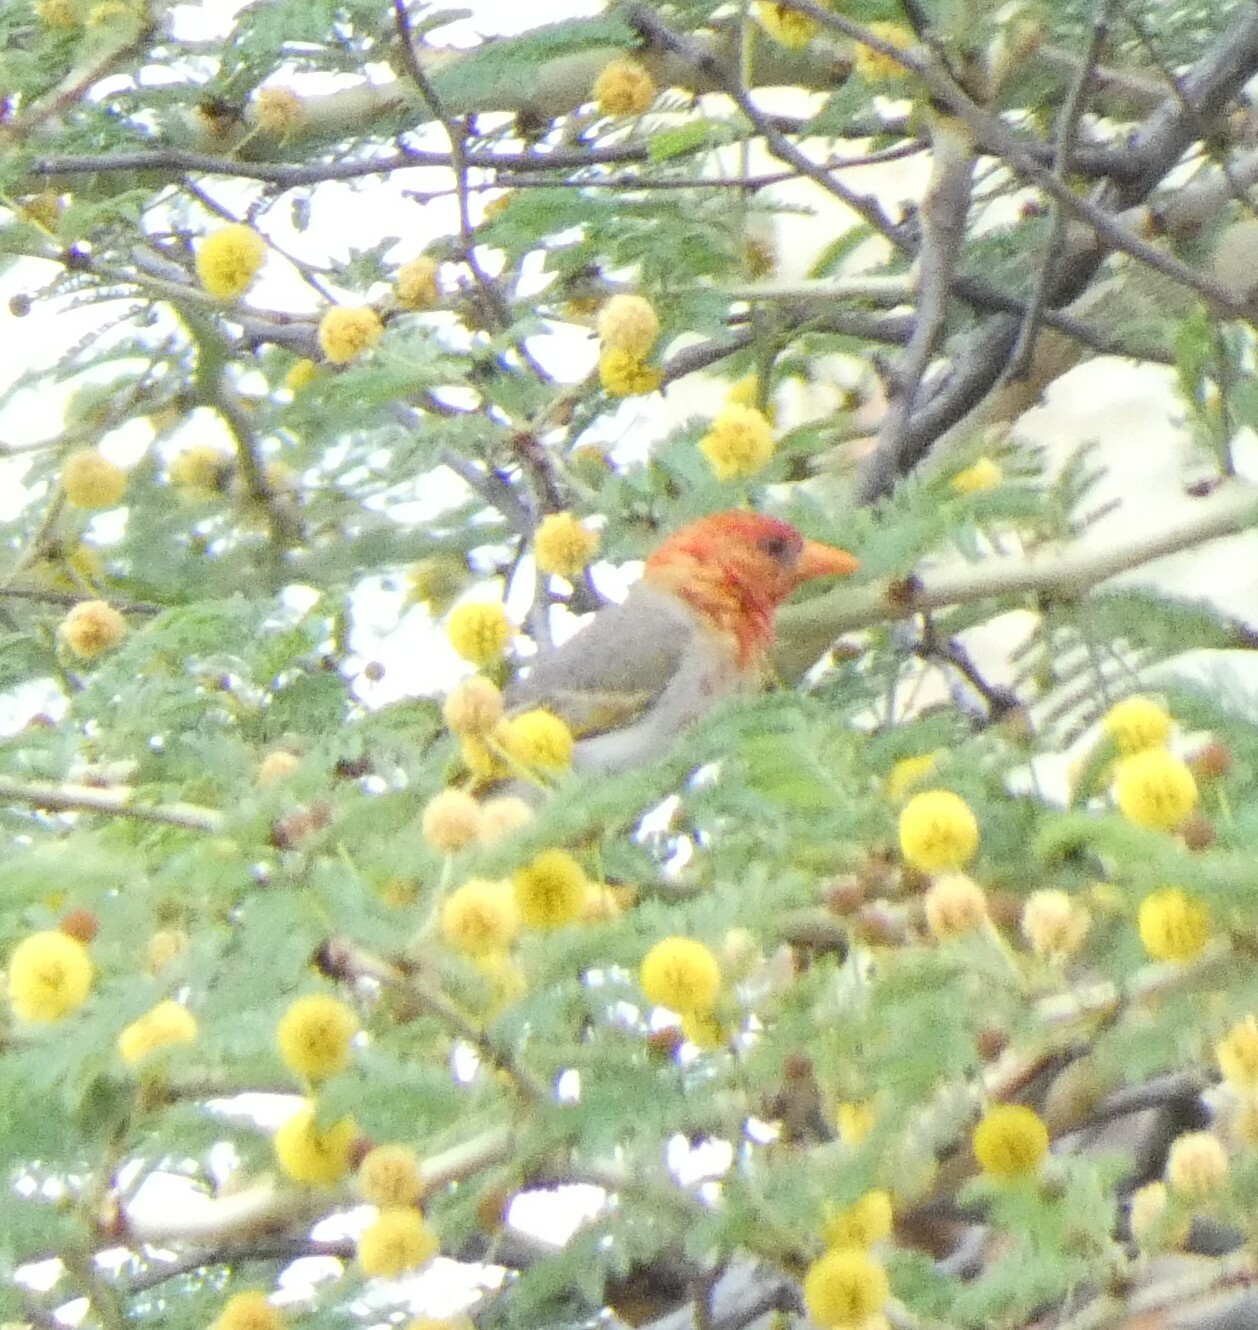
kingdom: Animalia
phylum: Chordata
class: Aves
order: Passeriformes
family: Ploceidae
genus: Anaplectes
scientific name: Anaplectes rubriceps
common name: Red-headed weaver
